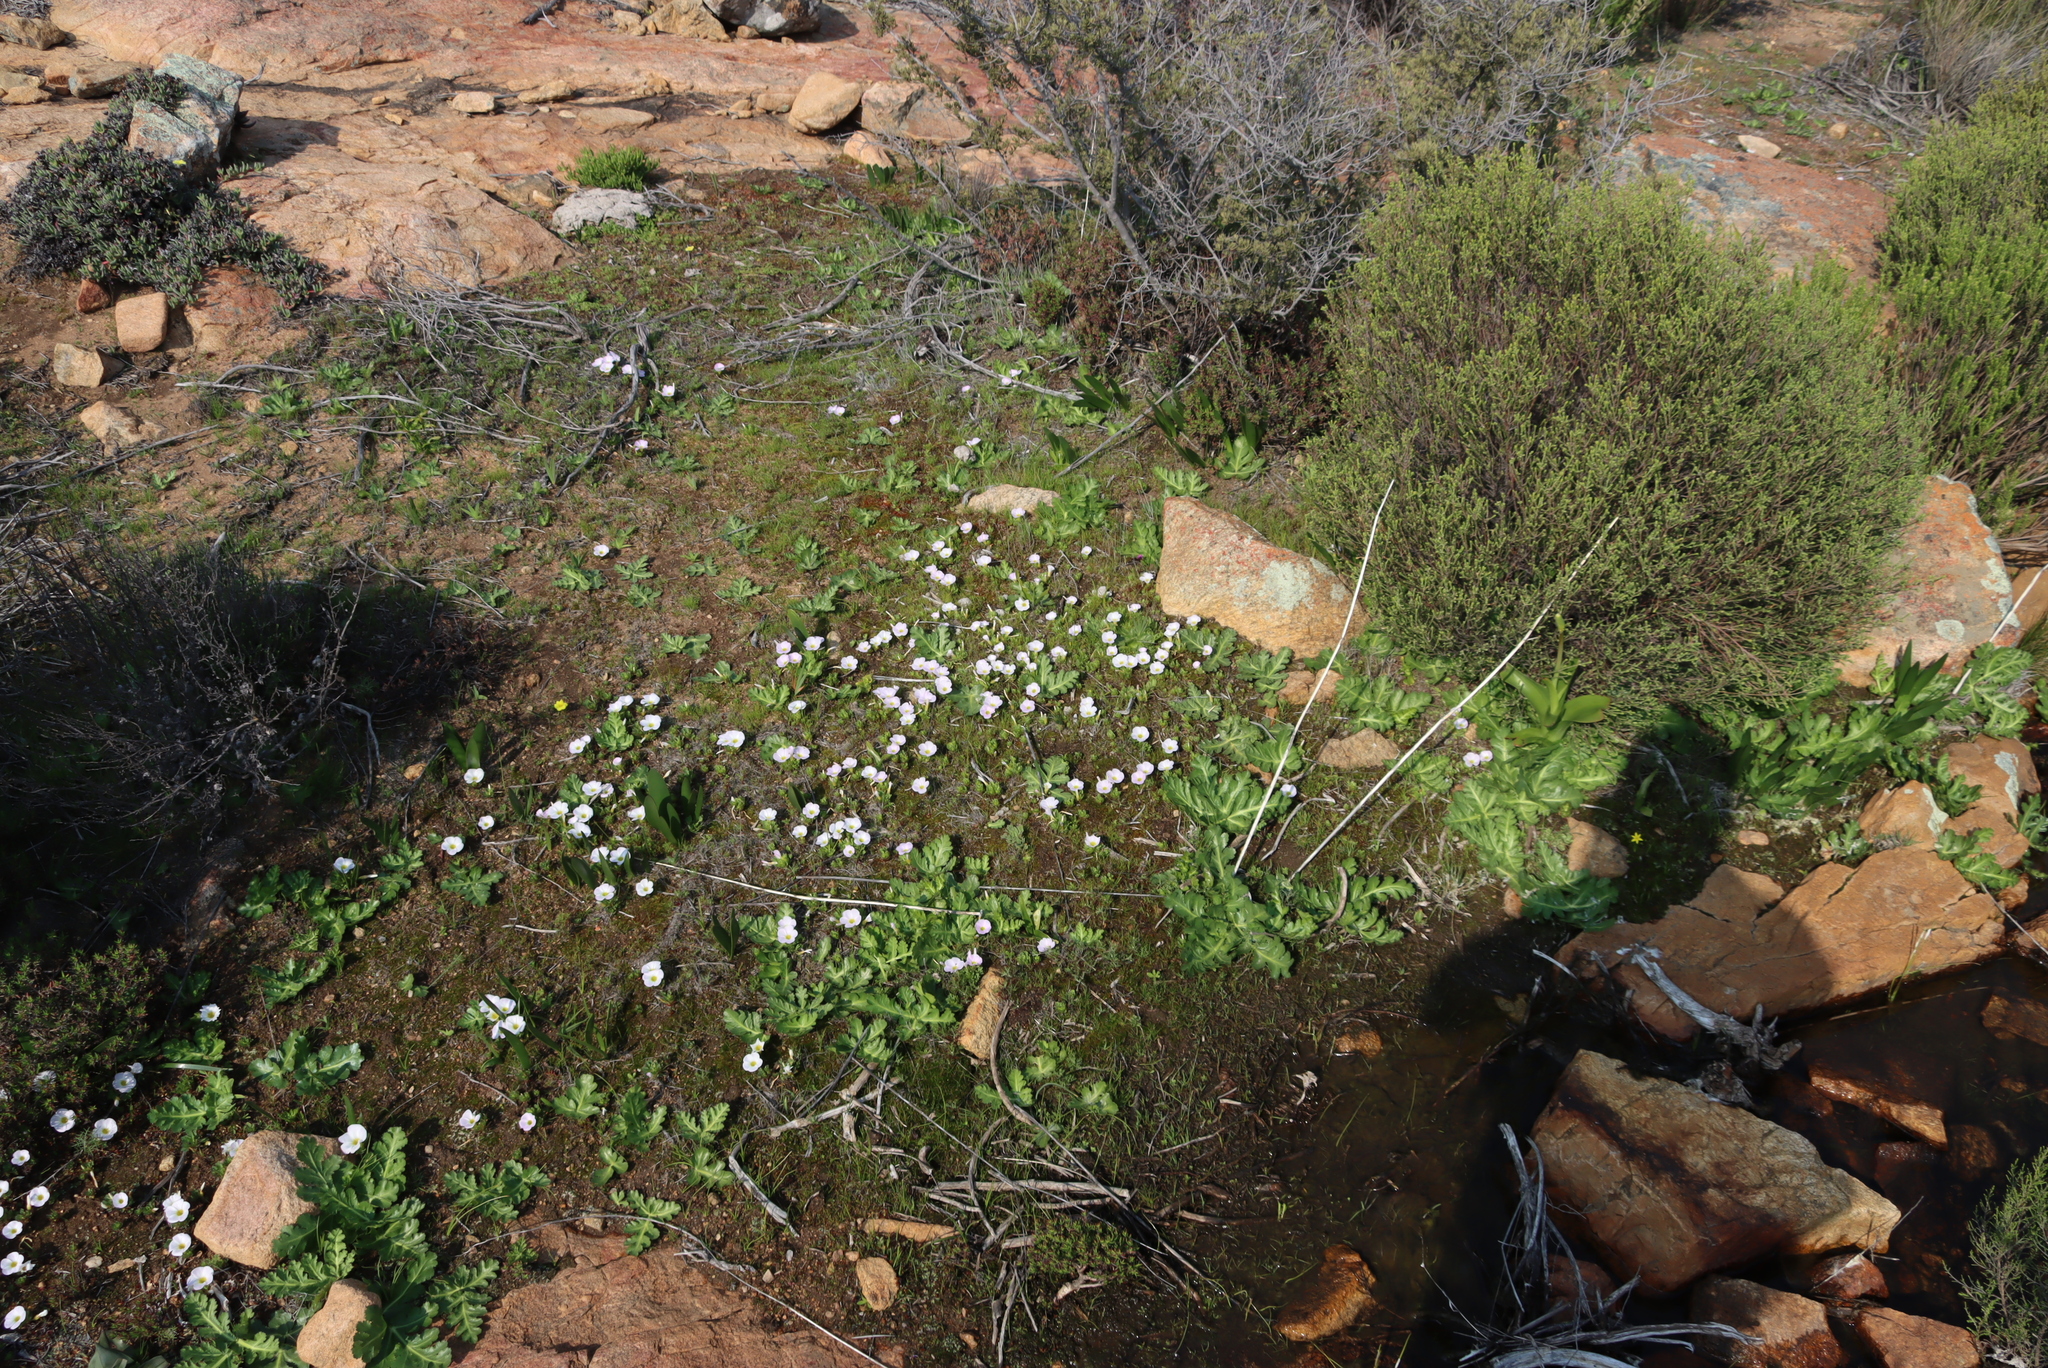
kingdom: Plantae
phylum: Tracheophyta
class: Magnoliopsida
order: Oxalidales
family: Oxalidaceae
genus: Oxalis
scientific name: Oxalis adenodes
